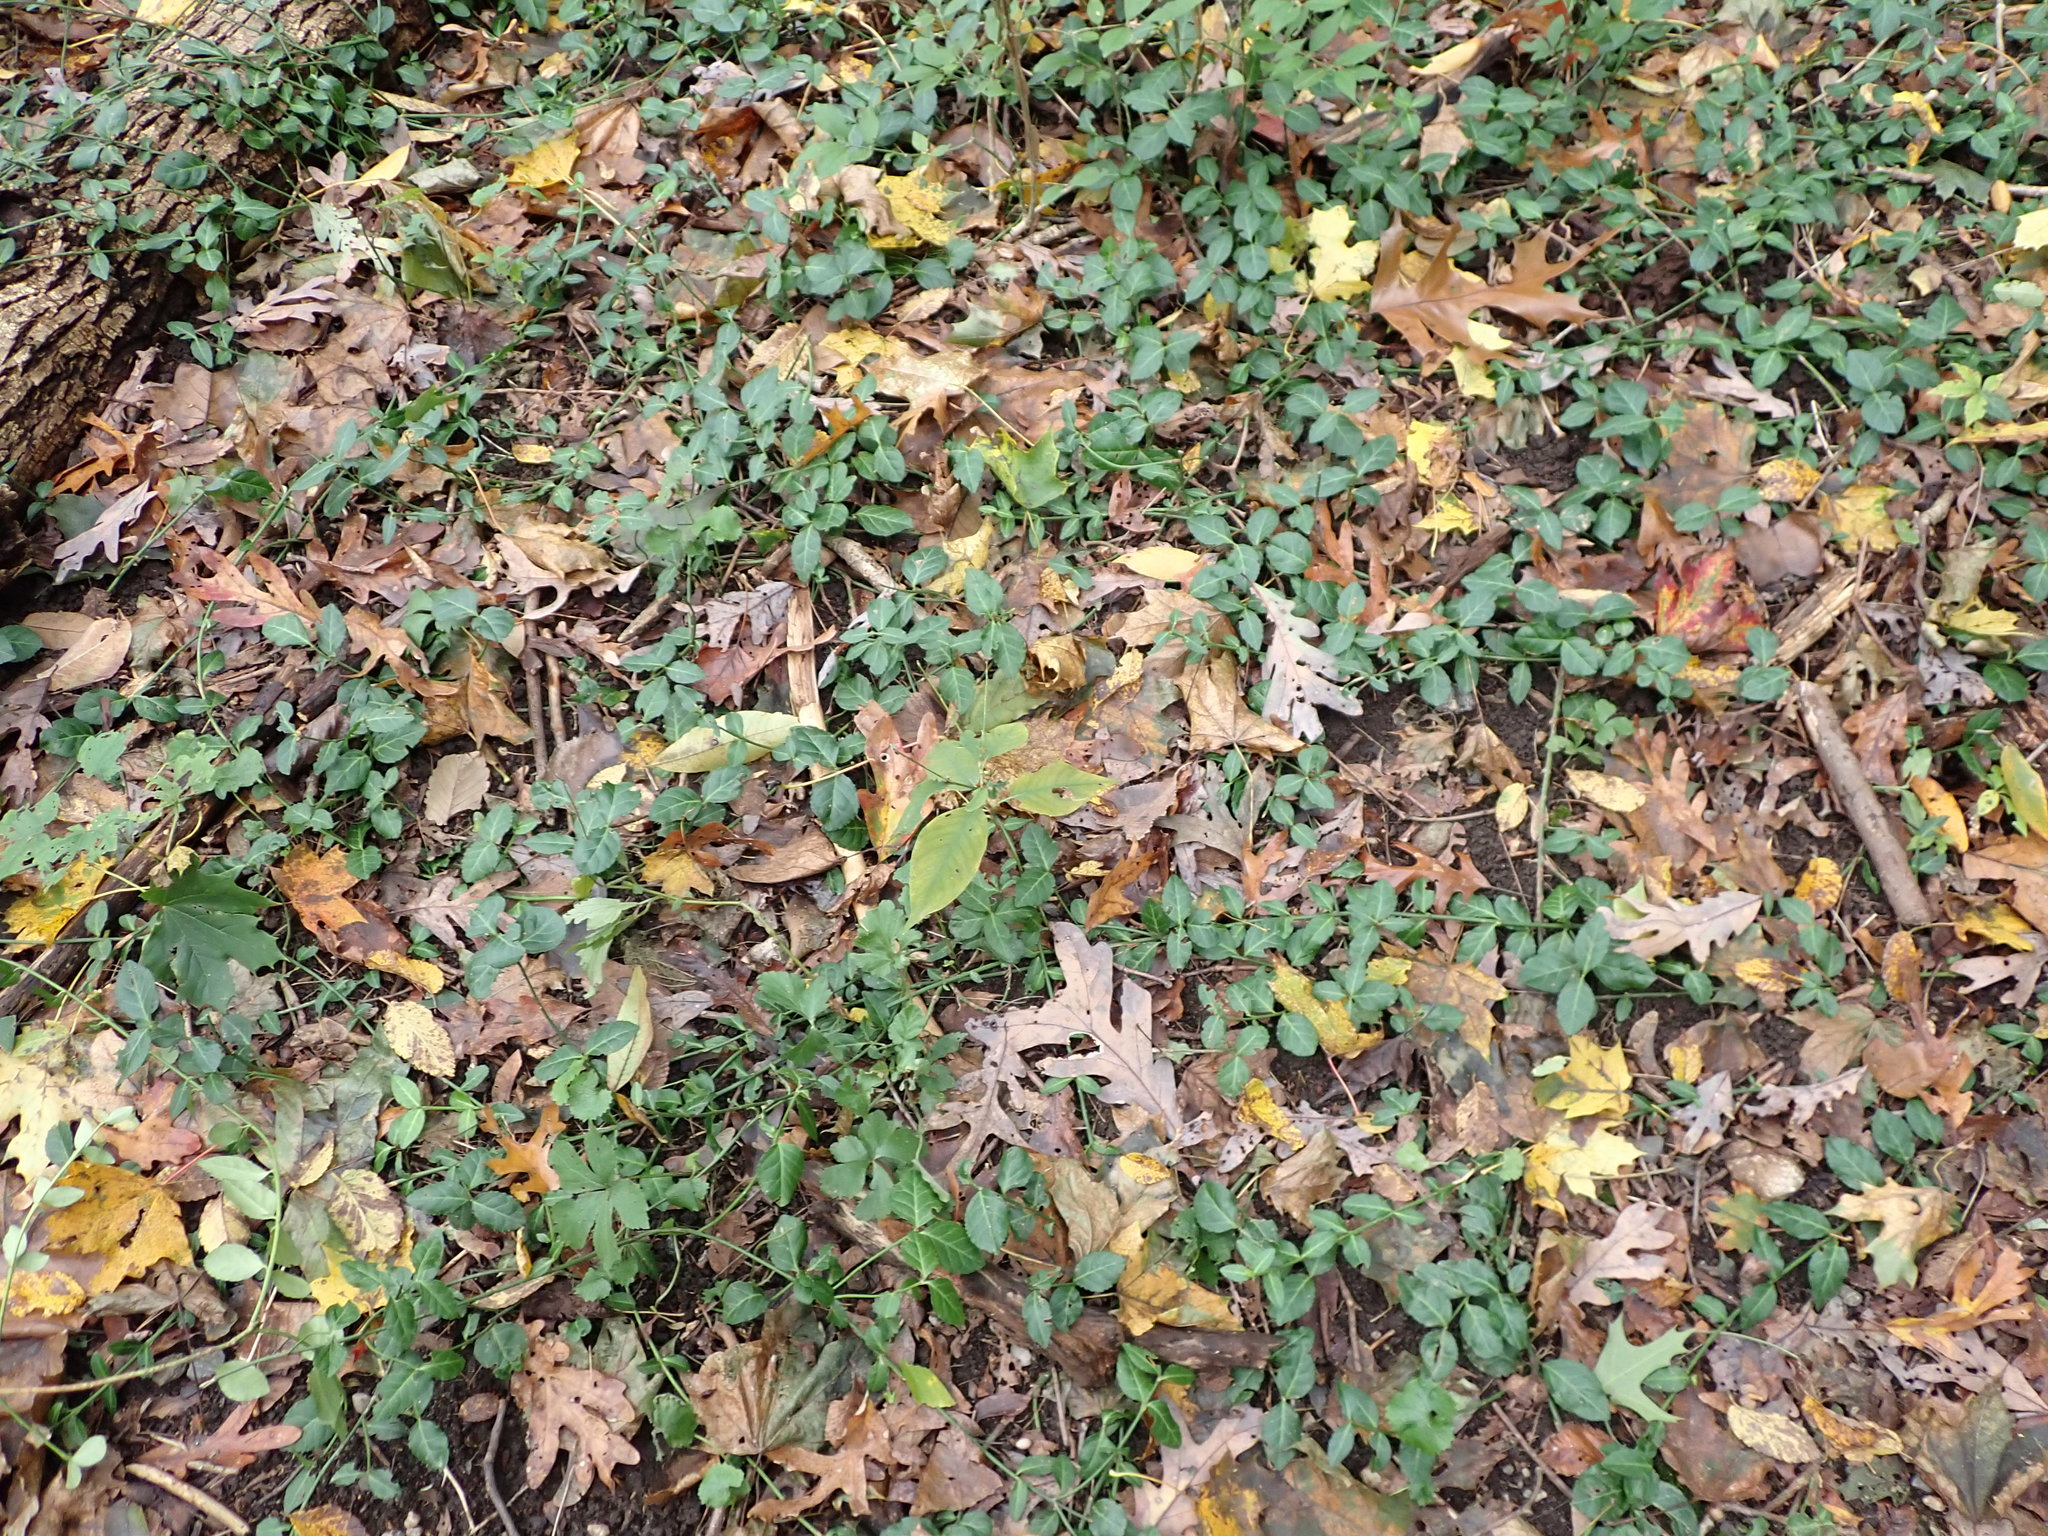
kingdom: Plantae
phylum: Tracheophyta
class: Magnoliopsida
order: Celastrales
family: Celastraceae
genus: Euonymus
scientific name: Euonymus fortunei
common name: Climbing euonymus
